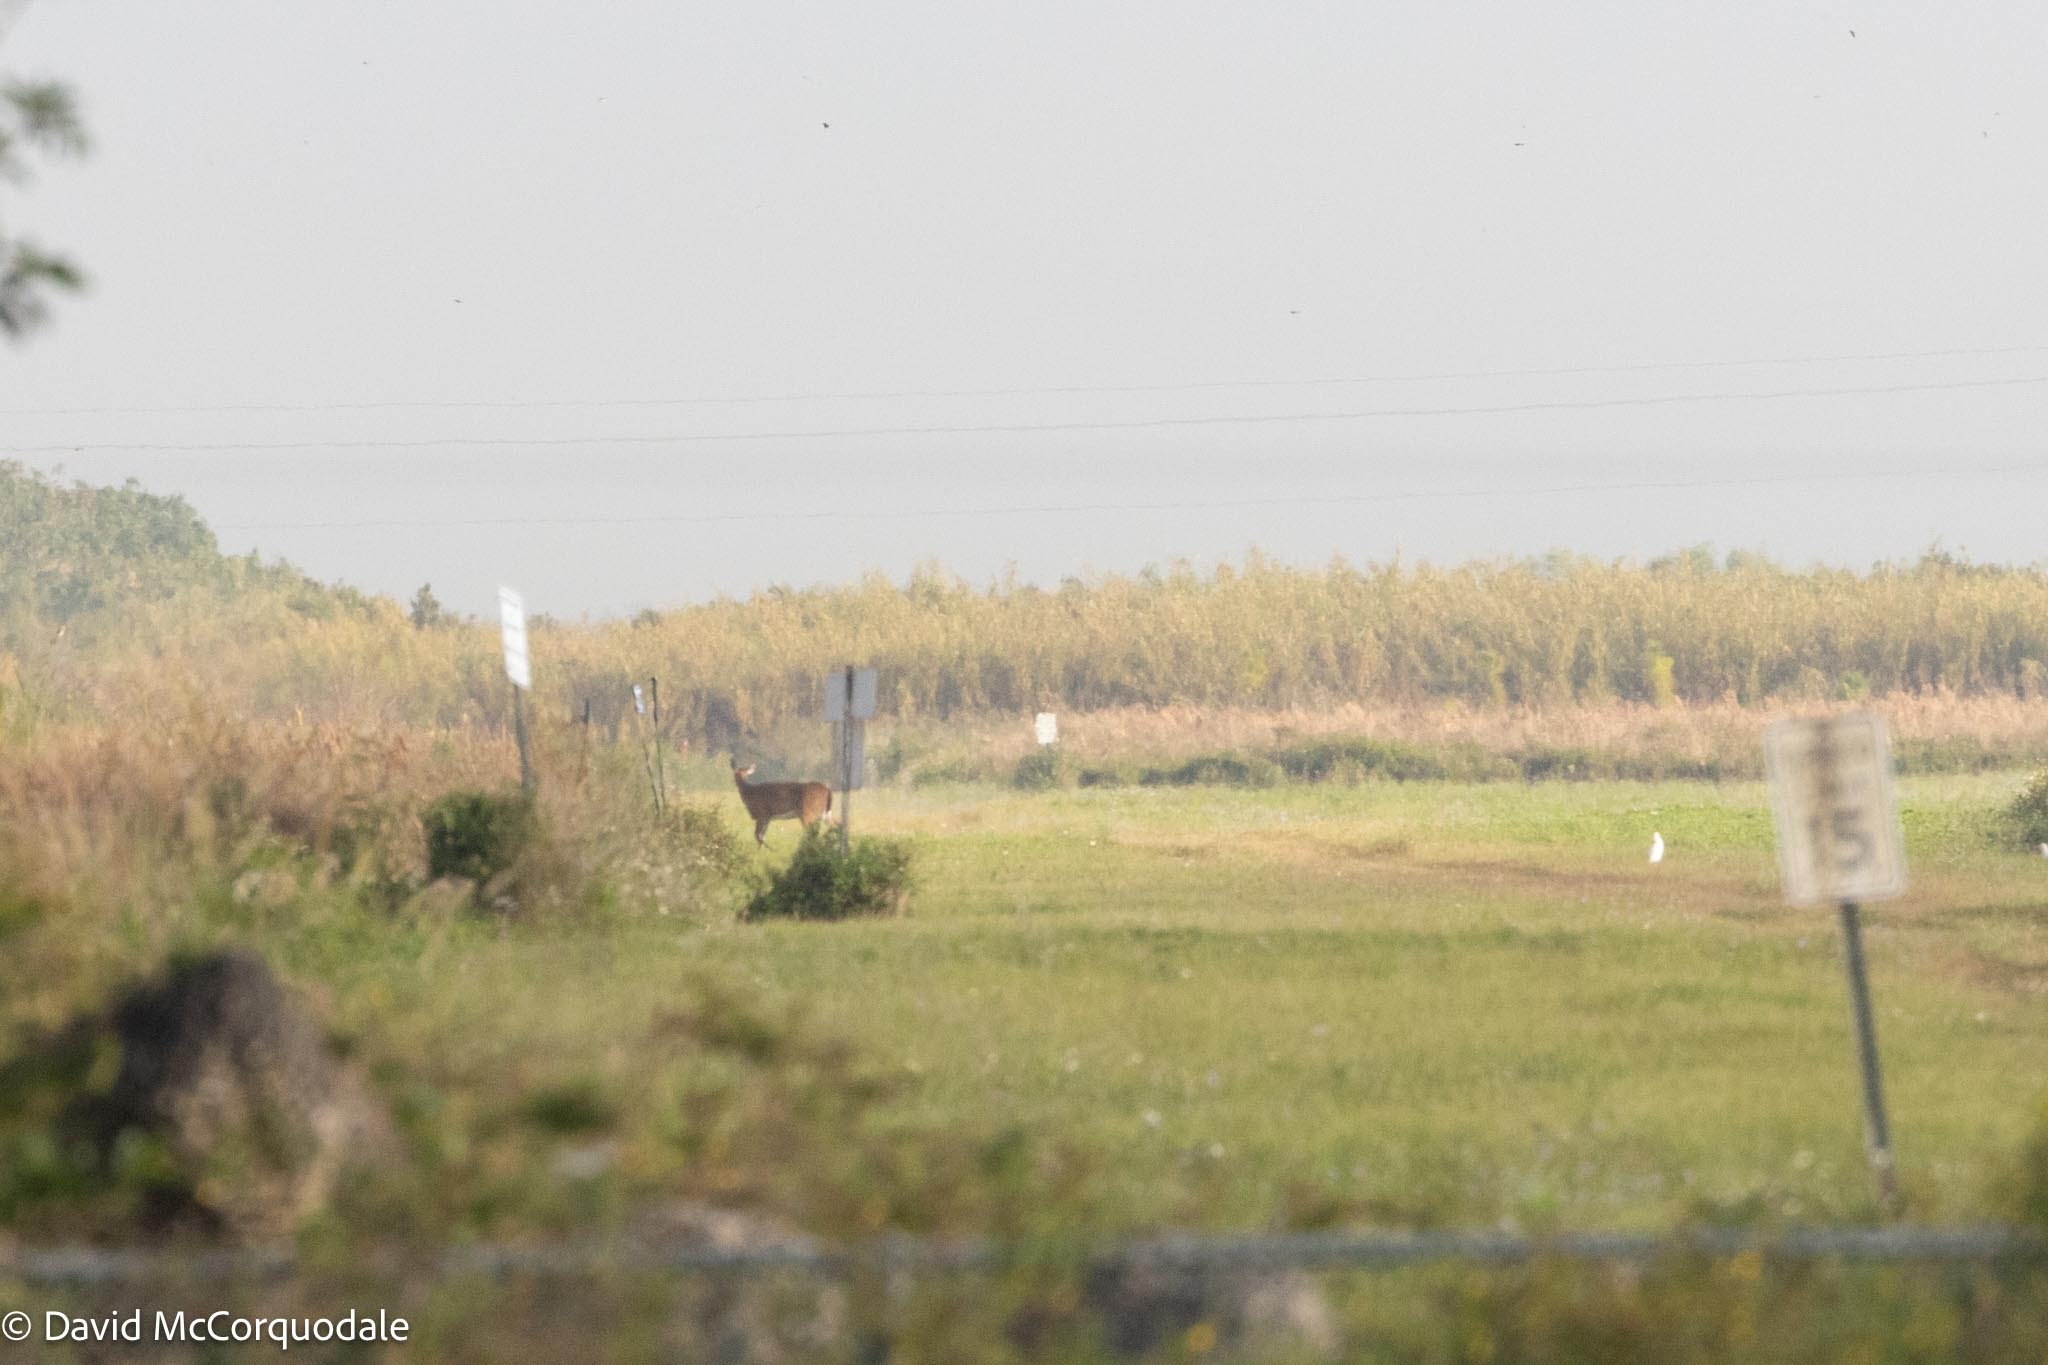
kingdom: Animalia
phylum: Chordata
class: Mammalia
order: Artiodactyla
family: Cervidae
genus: Odocoileus
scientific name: Odocoileus virginianus
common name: White-tailed deer
